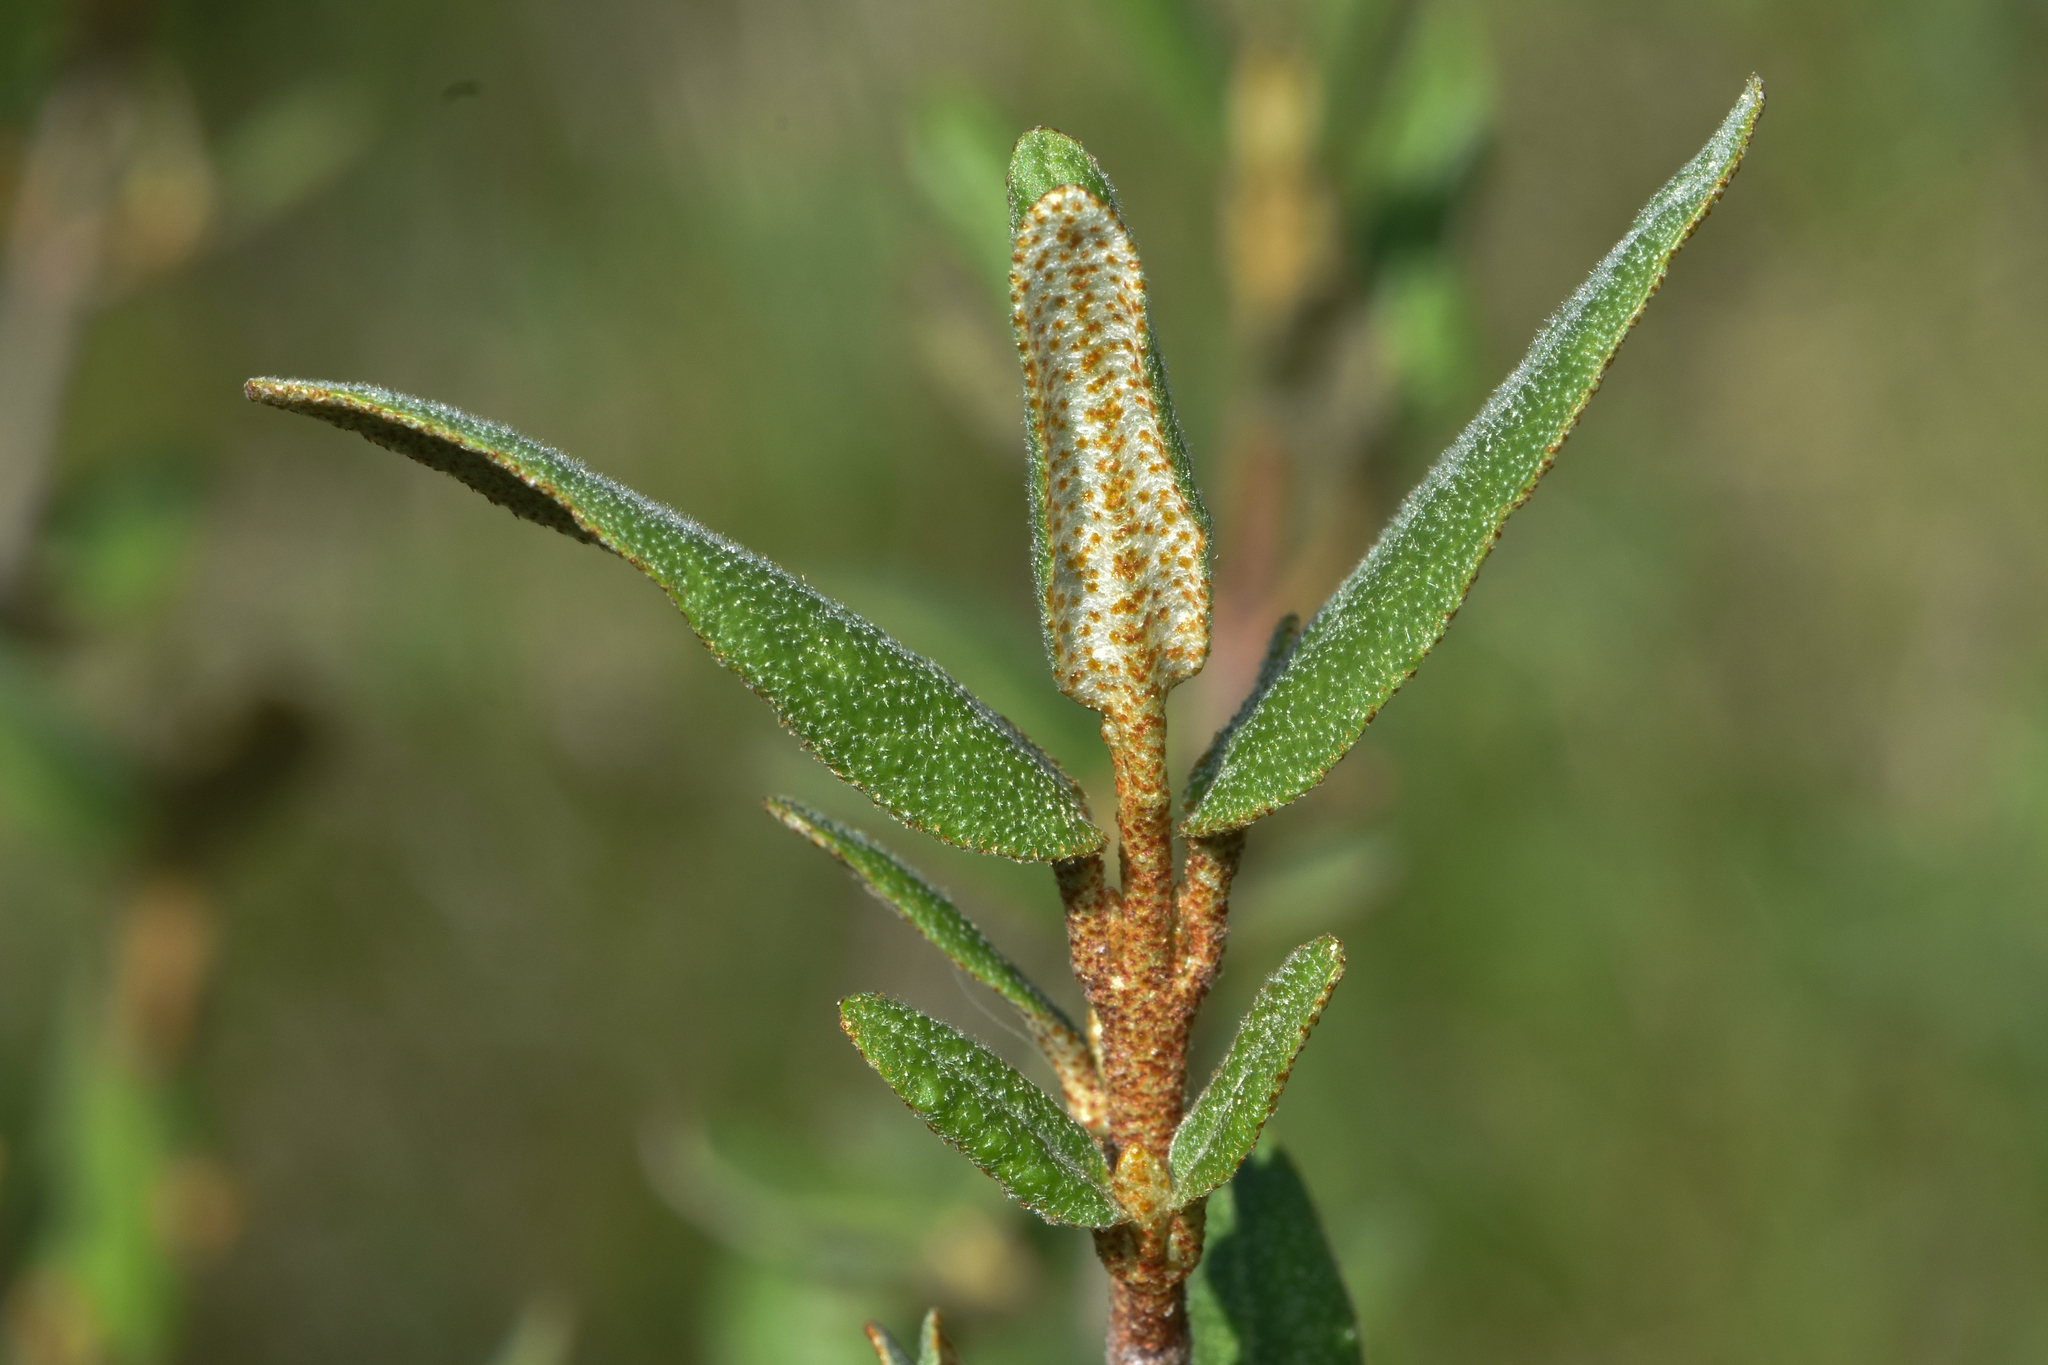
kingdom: Plantae
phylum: Tracheophyta
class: Magnoliopsida
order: Rosales
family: Elaeagnaceae
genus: Shepherdia
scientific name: Shepherdia canadensis
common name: Soapberry
